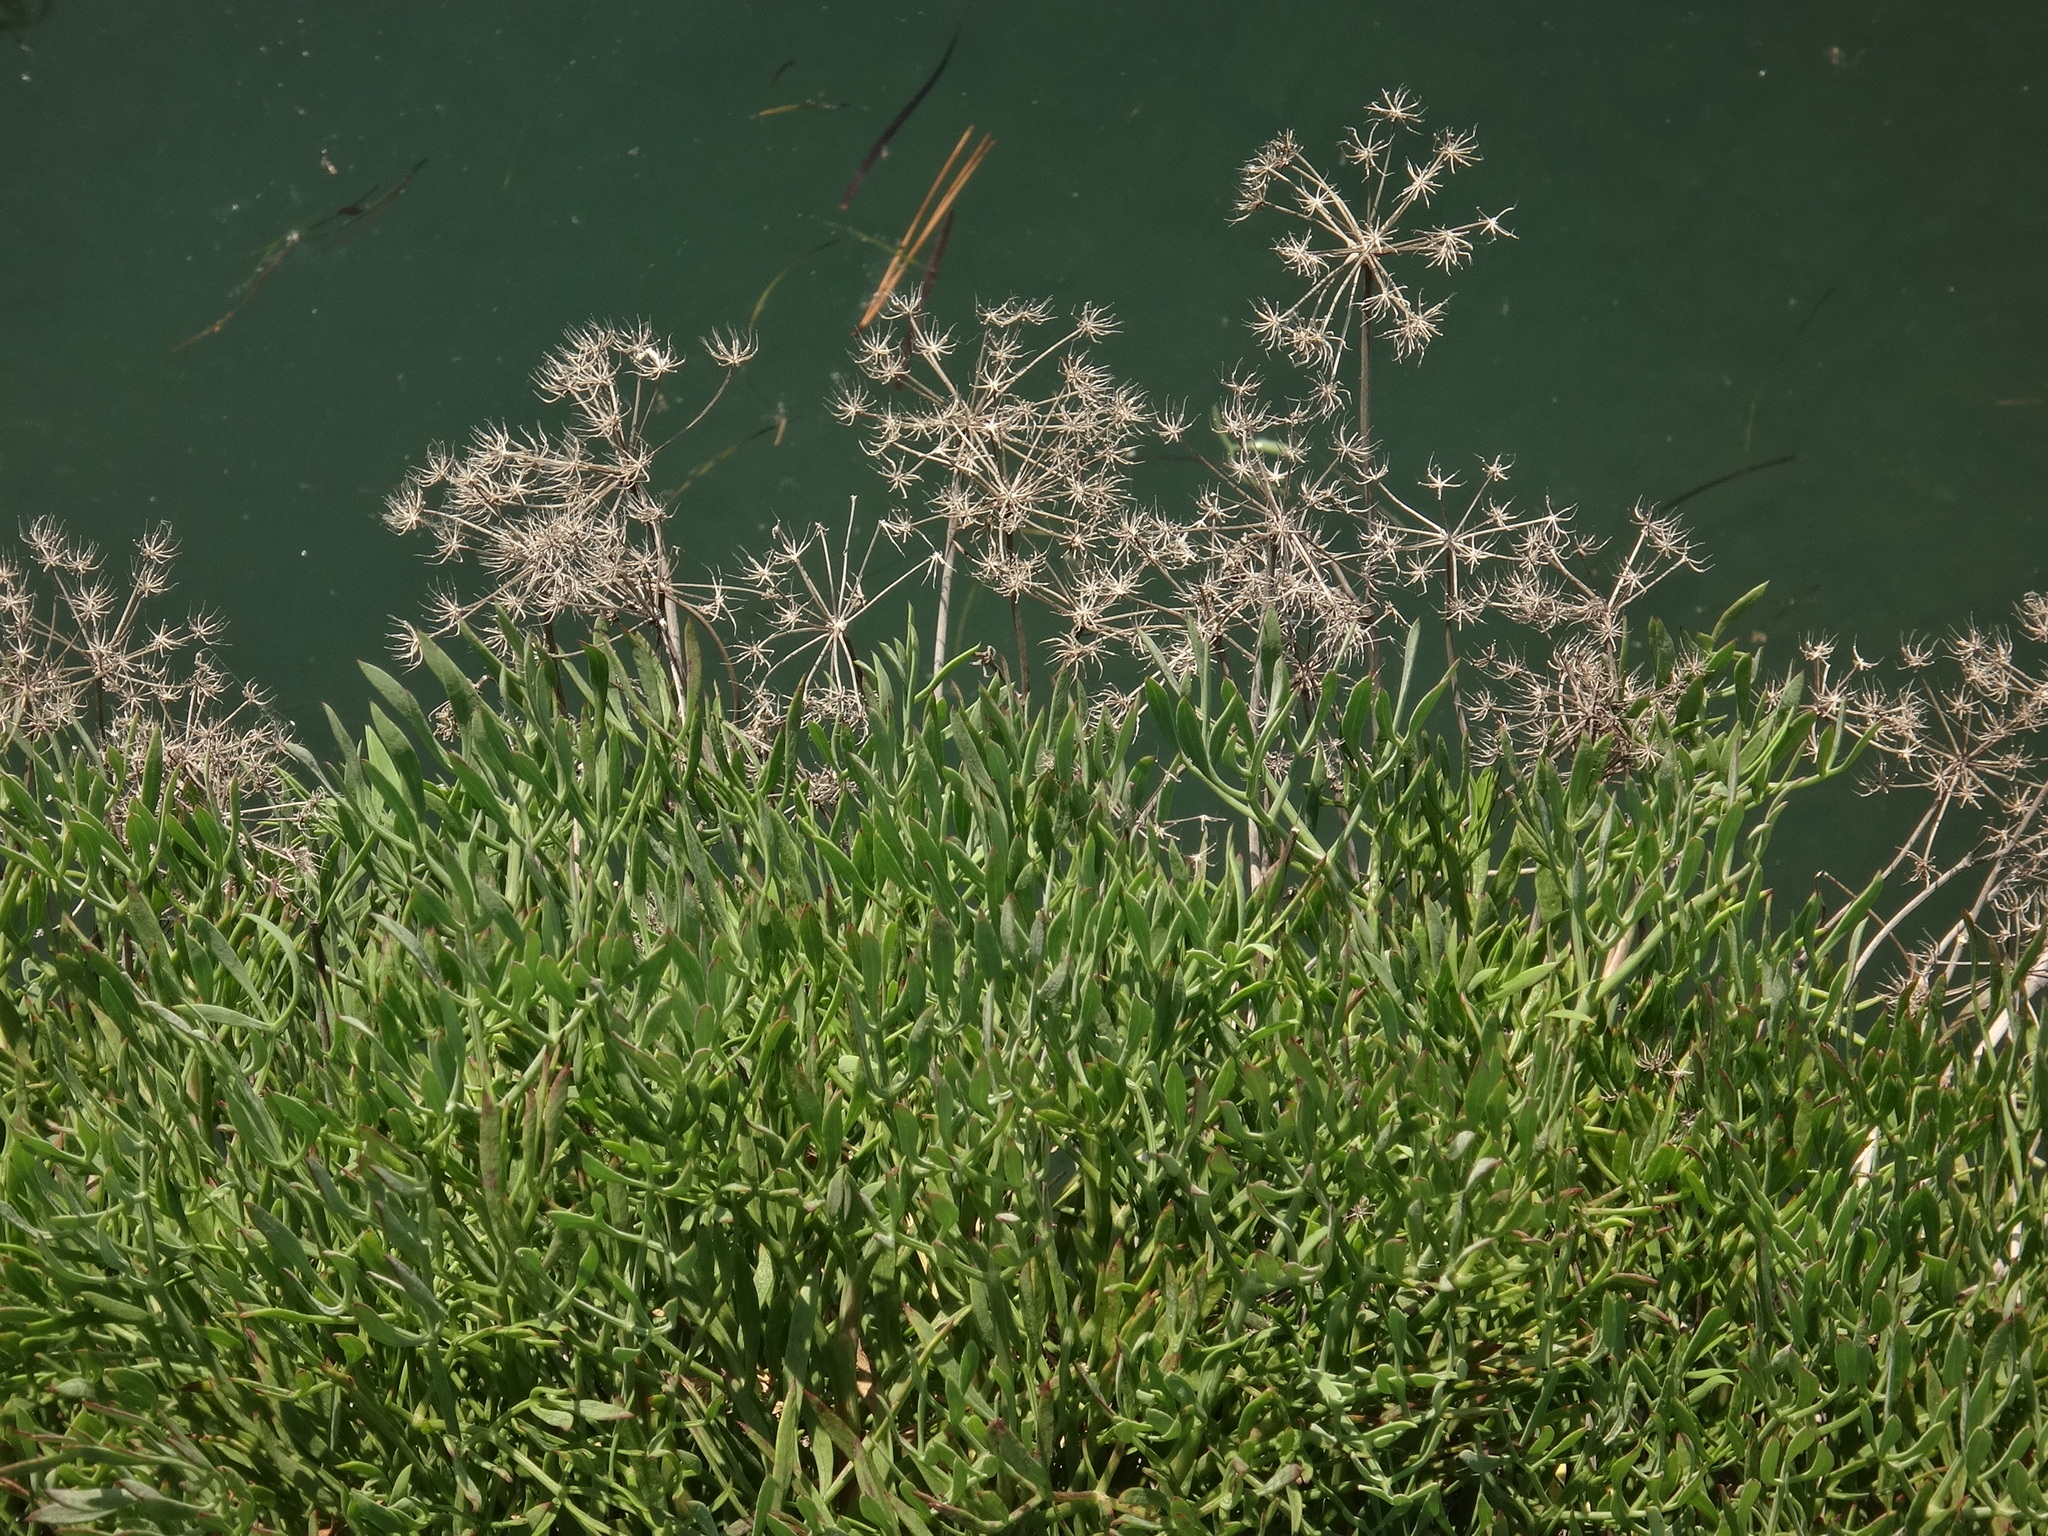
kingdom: Plantae
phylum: Tracheophyta
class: Magnoliopsida
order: Apiales
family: Apiaceae
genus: Crithmum
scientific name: Crithmum maritimum
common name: Rock samphire
